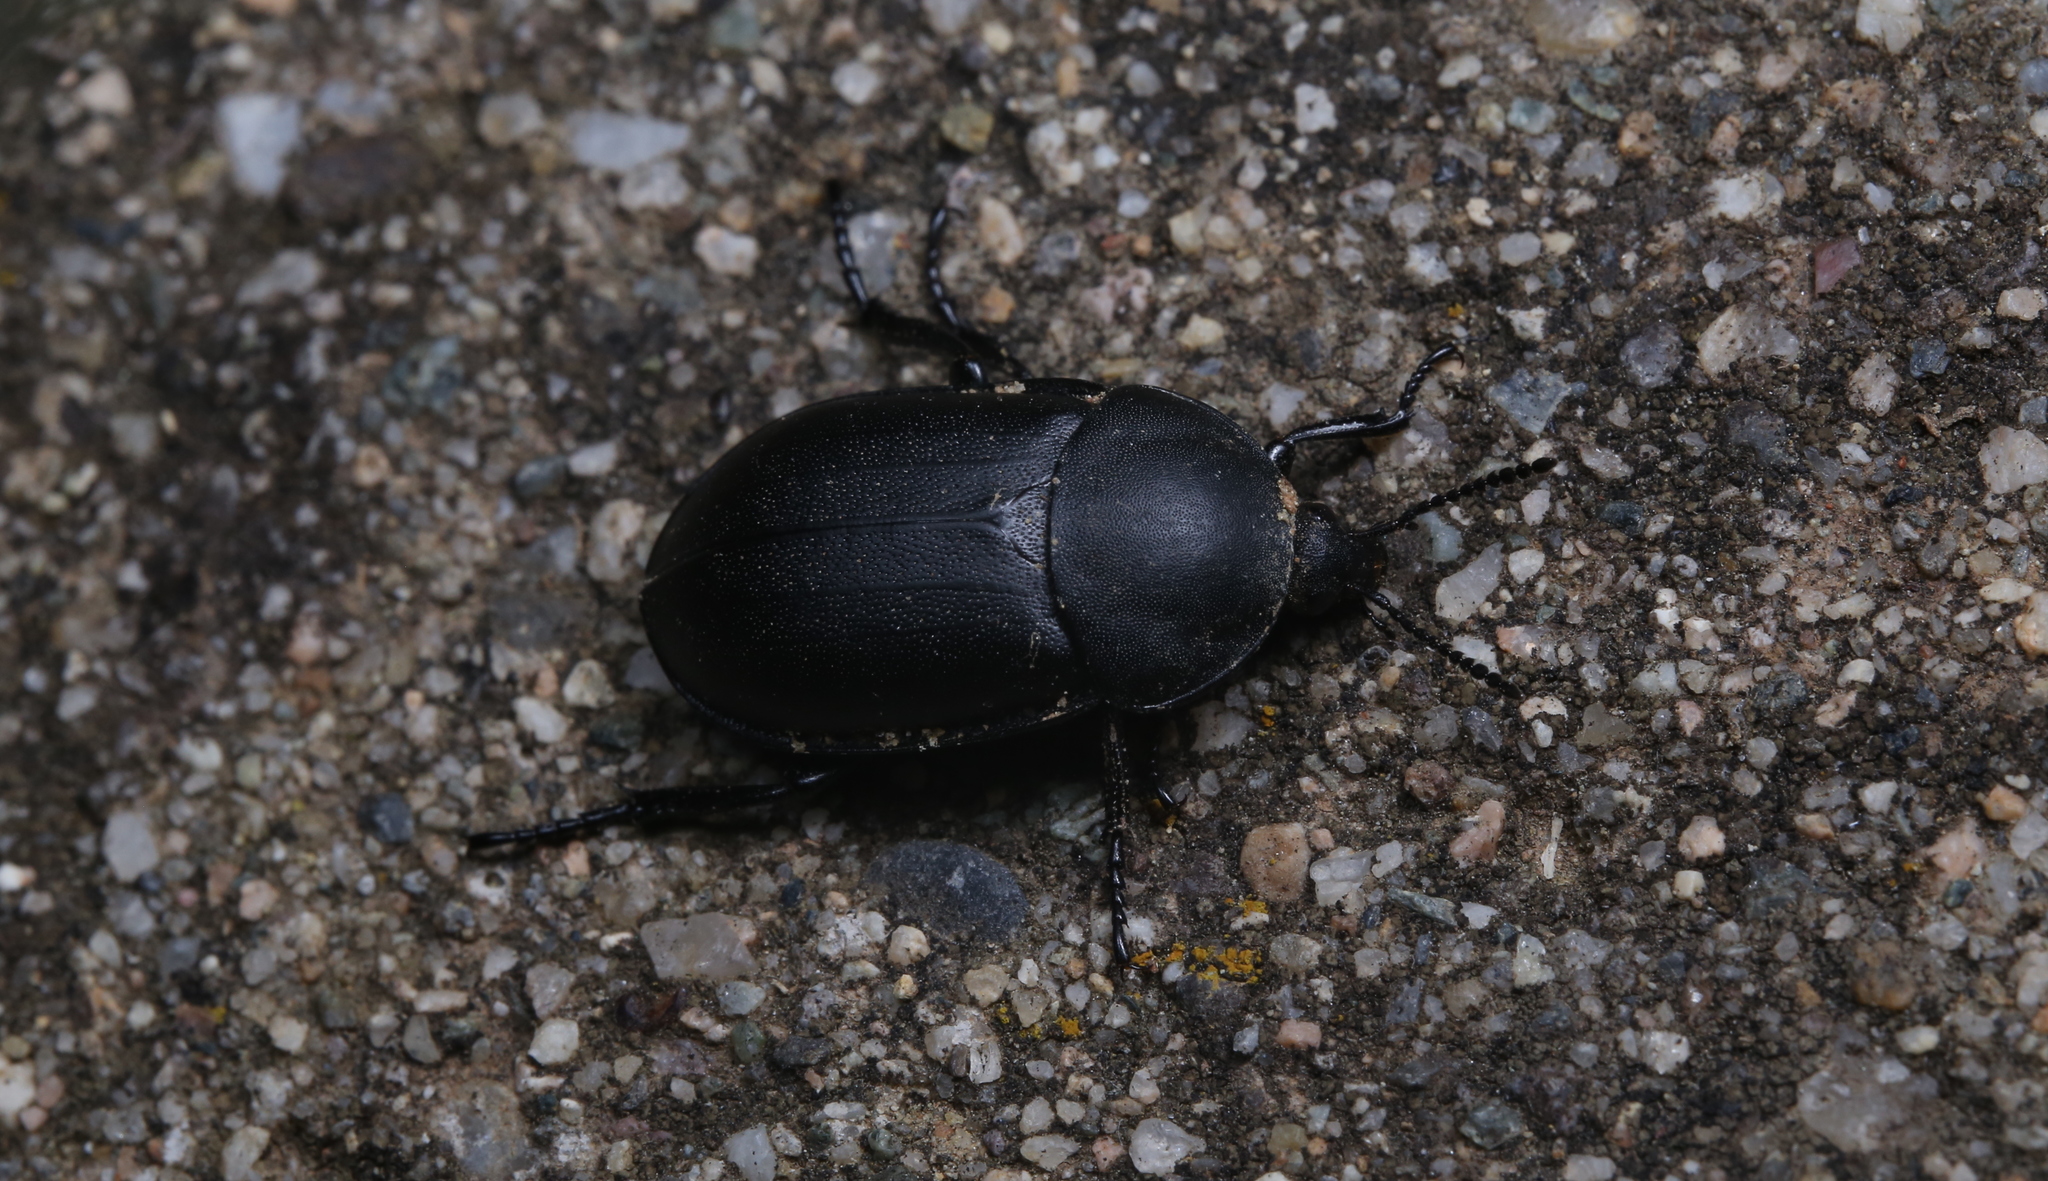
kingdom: Animalia
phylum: Arthropoda
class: Insecta
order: Coleoptera
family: Staphylinidae
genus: Silpha
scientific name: Silpha laevigata
